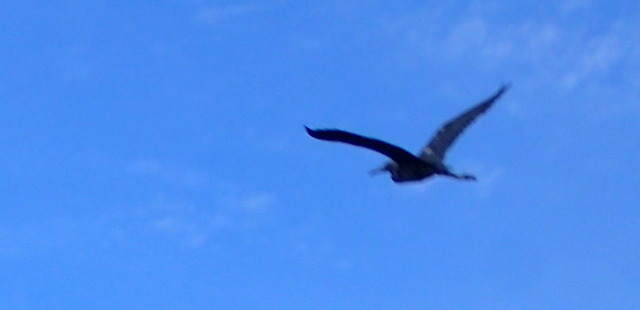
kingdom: Animalia
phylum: Chordata
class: Aves
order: Pelecaniformes
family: Ardeidae
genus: Egretta
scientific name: Egretta caerulea
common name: Little blue heron
